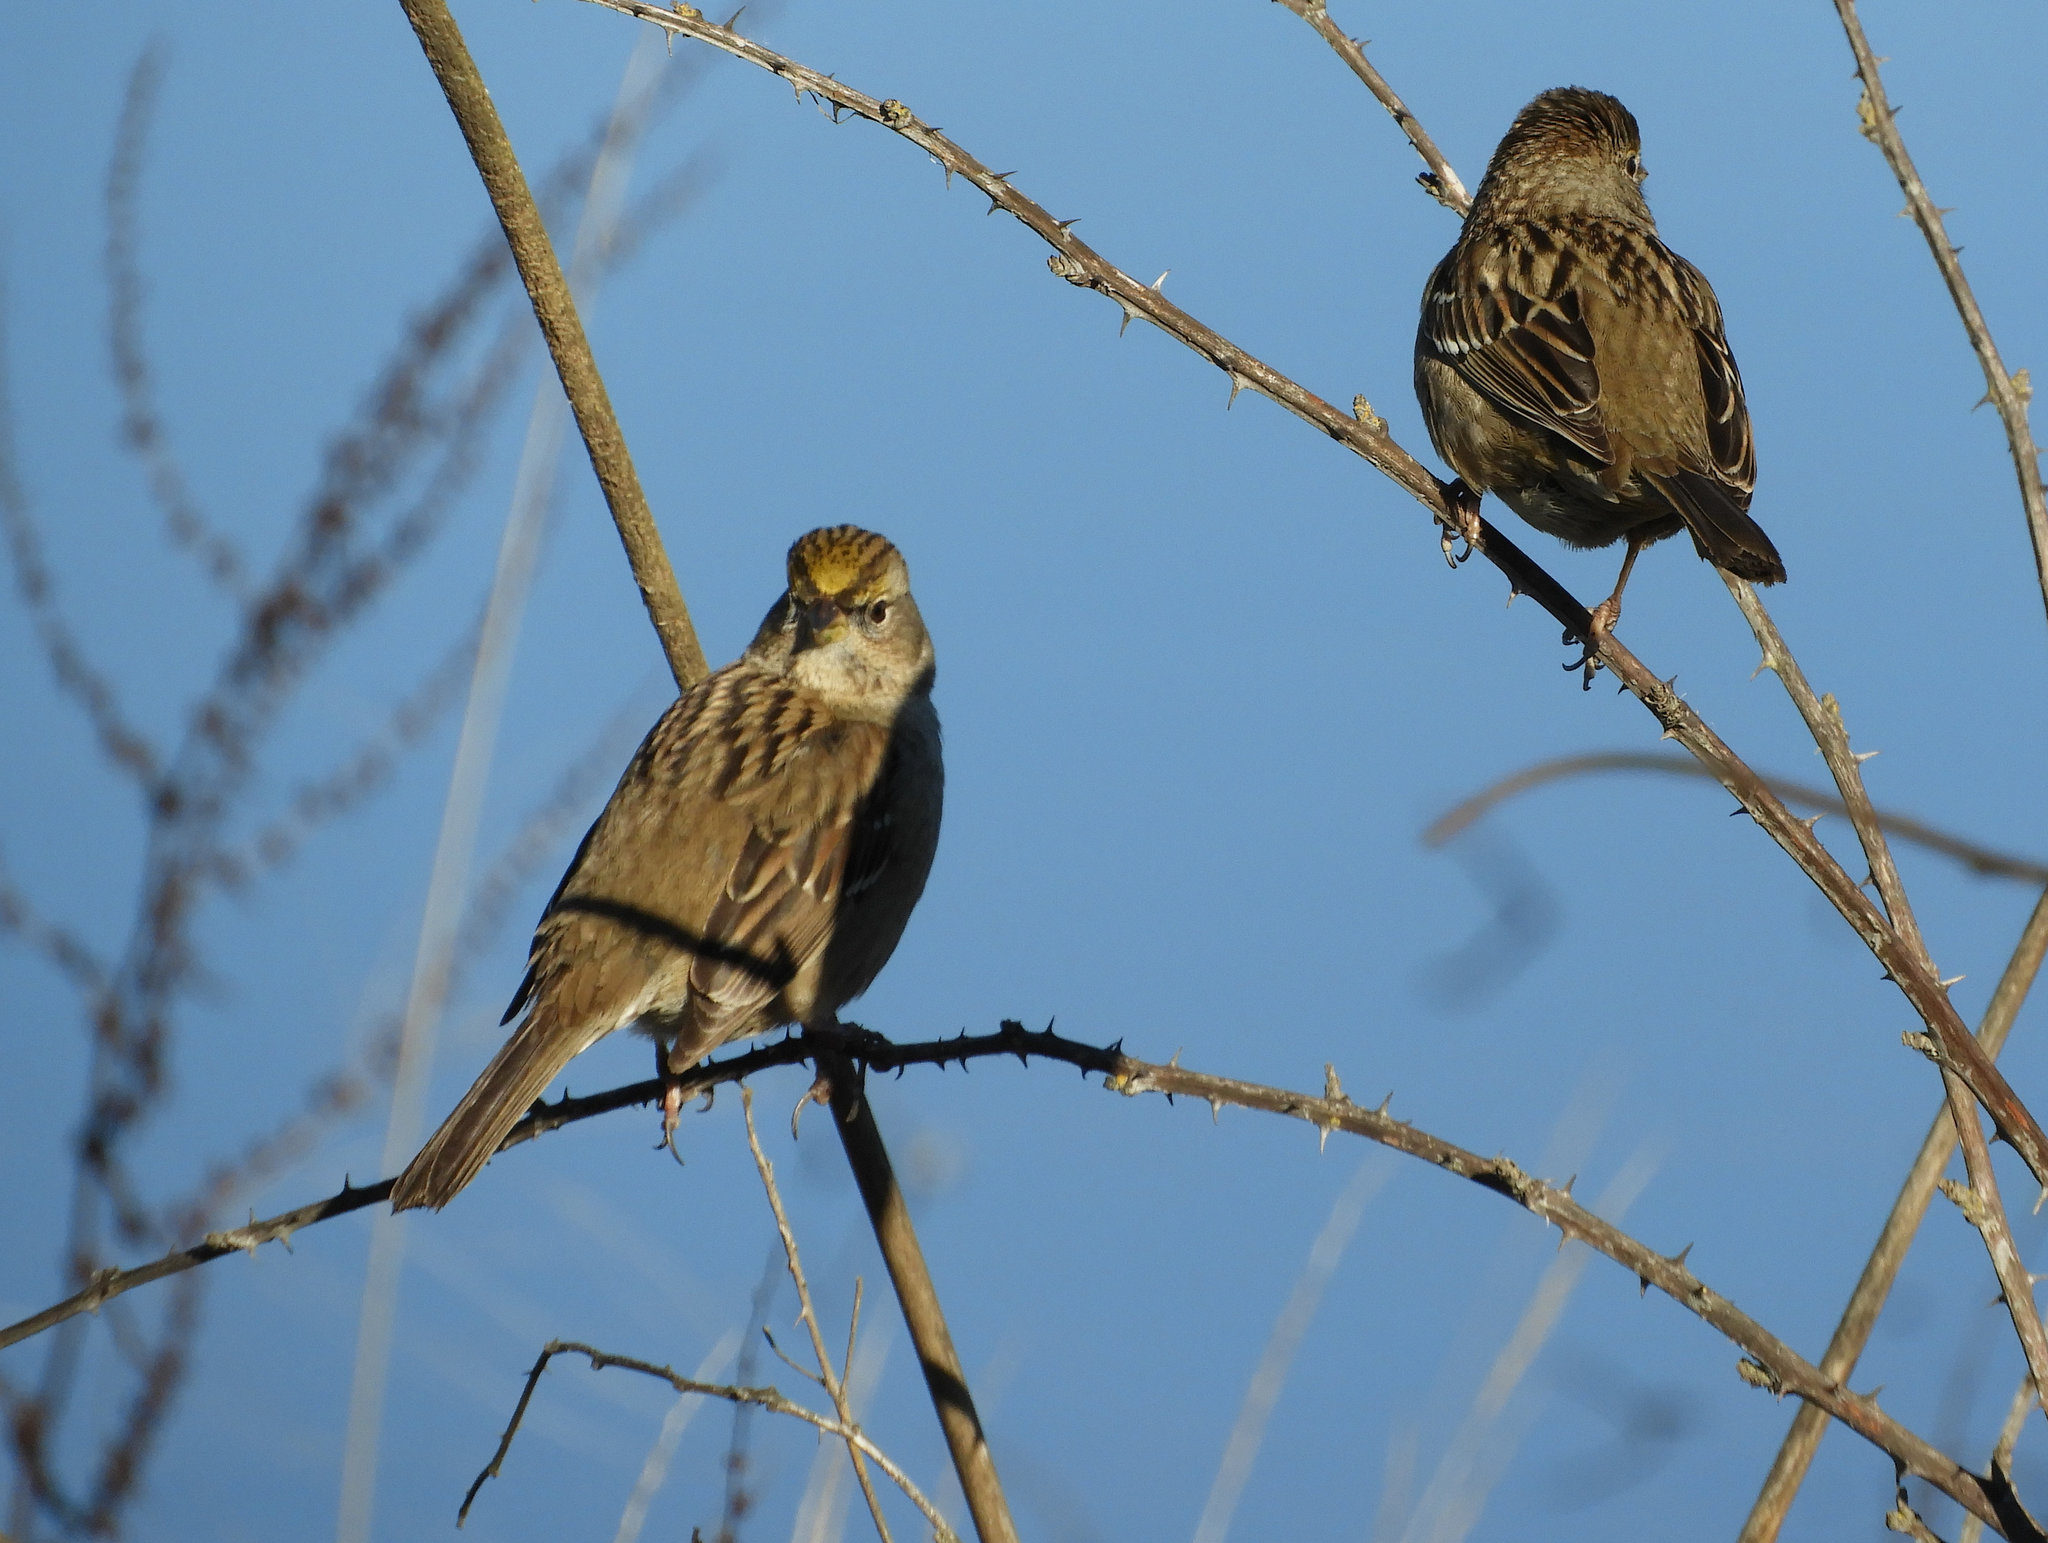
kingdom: Animalia
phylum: Chordata
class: Aves
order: Passeriformes
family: Passerellidae
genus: Zonotrichia
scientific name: Zonotrichia atricapilla
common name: Golden-crowned sparrow
